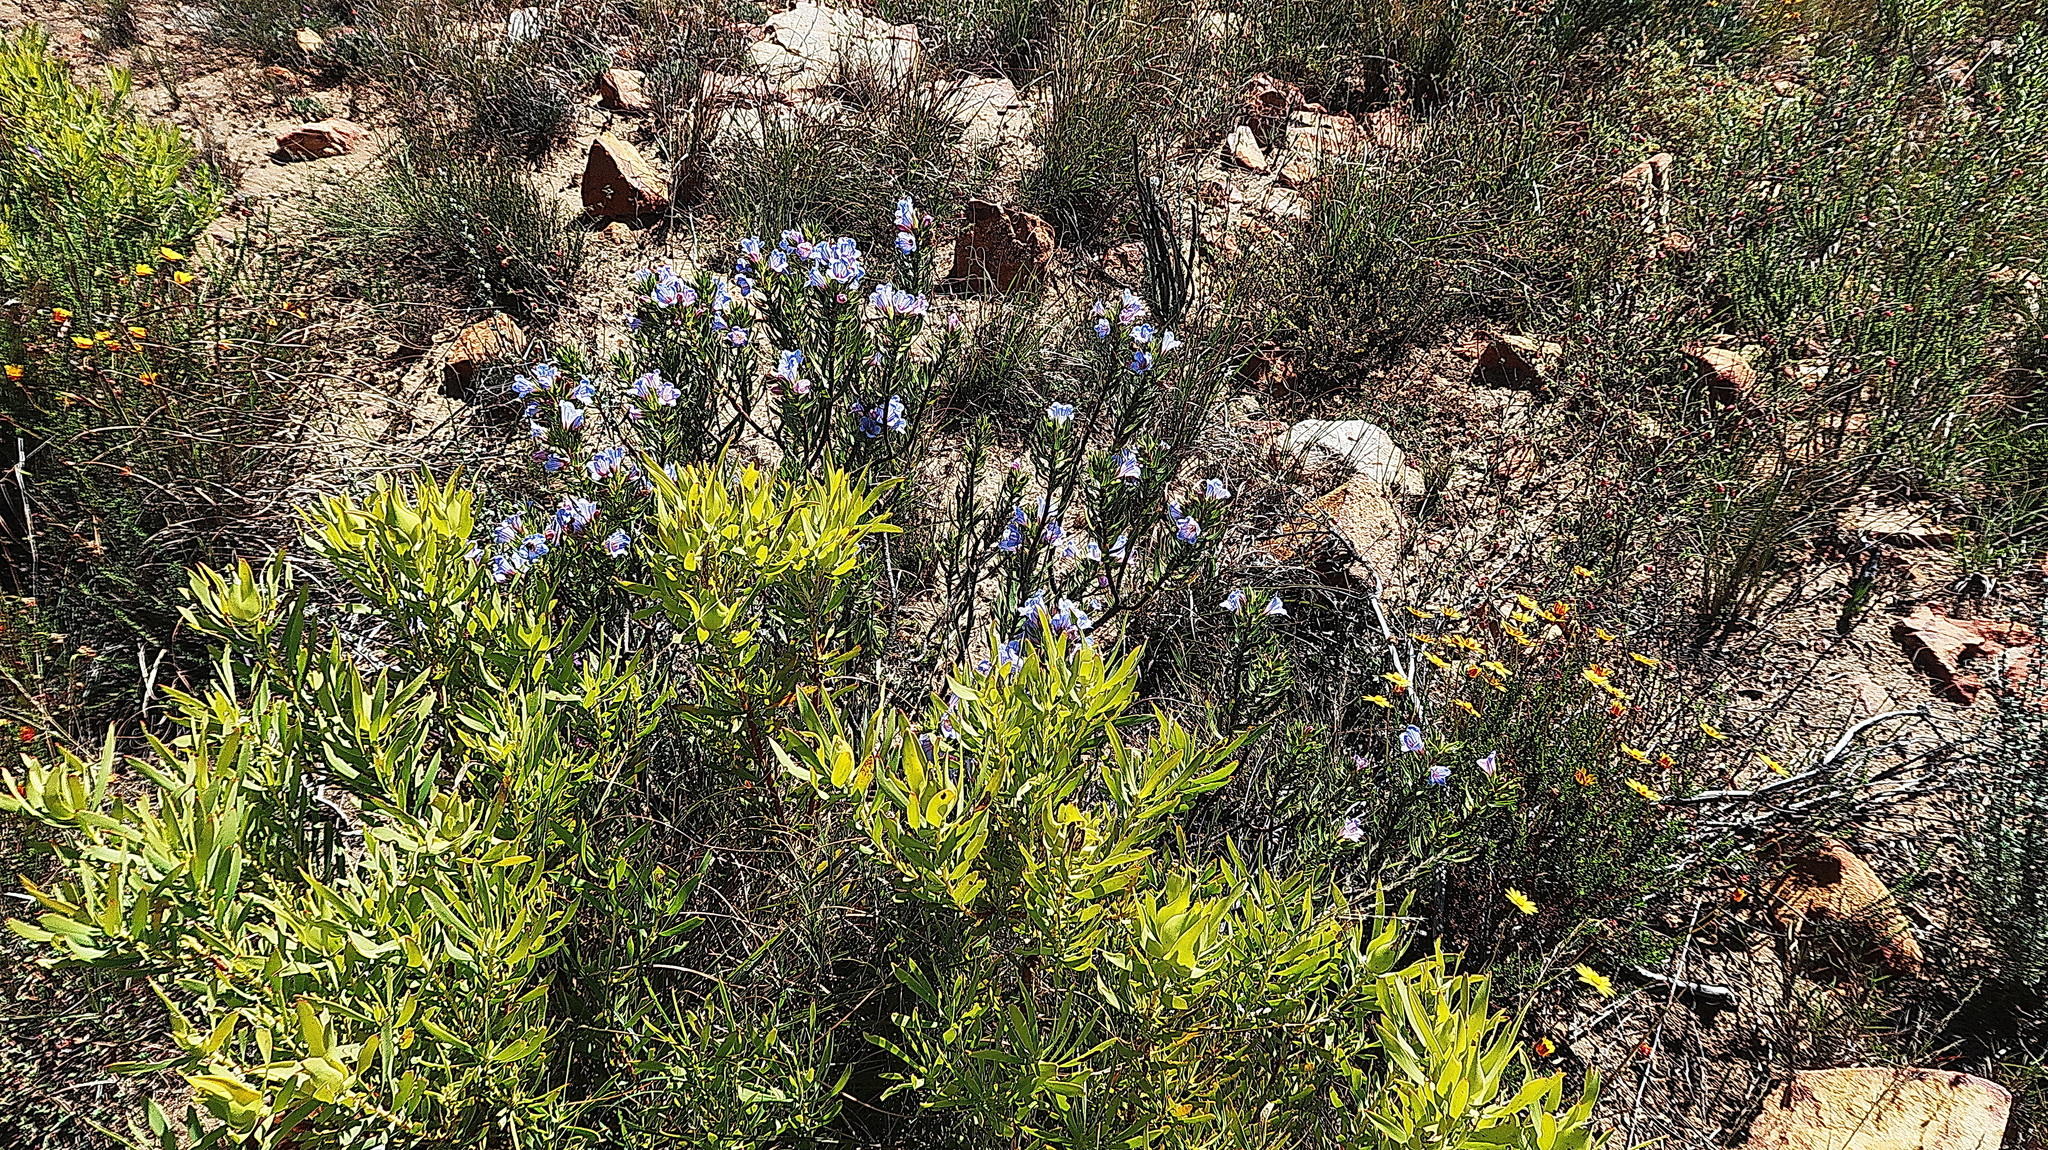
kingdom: Plantae
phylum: Tracheophyta
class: Magnoliopsida
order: Boraginales
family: Boraginaceae
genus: Lobostemon
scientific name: Lobostemon fruticosus
